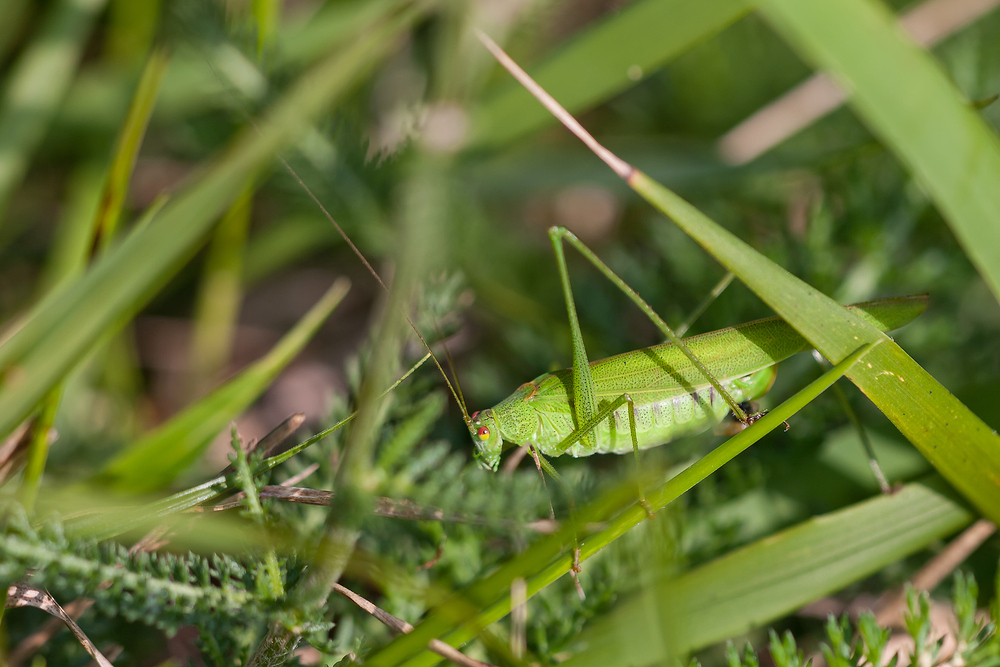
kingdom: Animalia
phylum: Arthropoda
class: Insecta
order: Orthoptera
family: Tettigoniidae
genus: Phaneroptera
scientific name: Phaneroptera falcata
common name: Sickle-bearing bush-cricket
